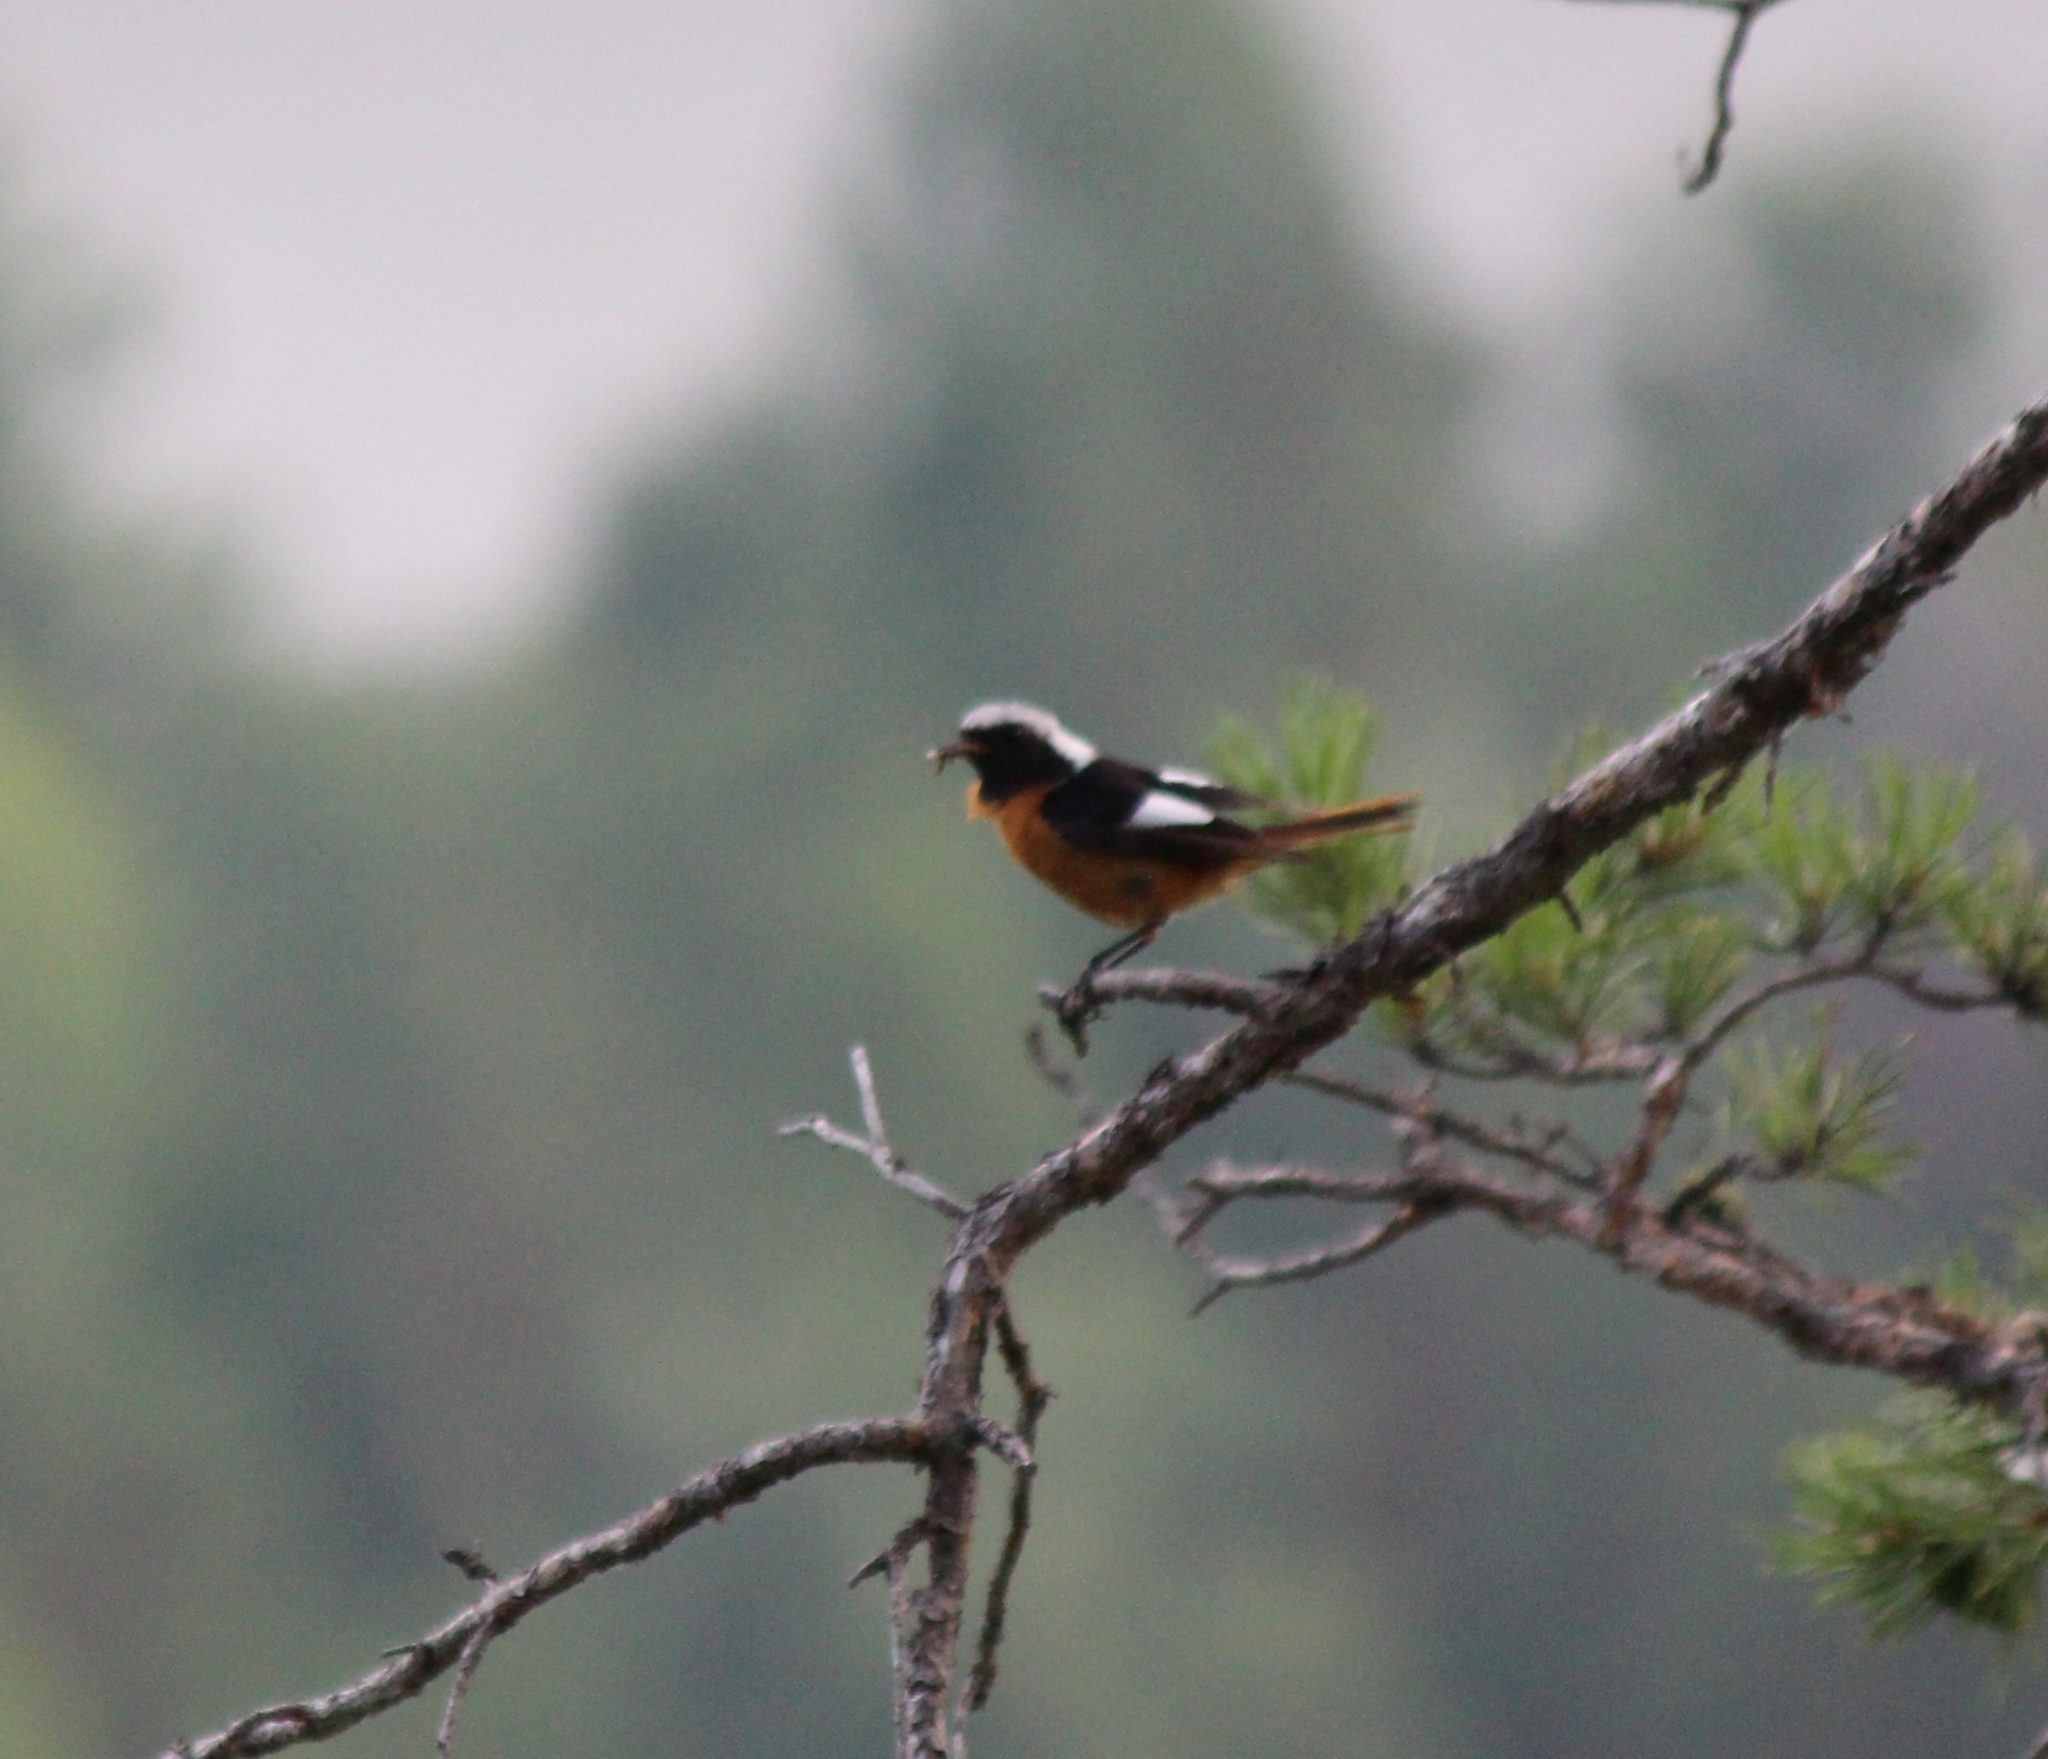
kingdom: Animalia
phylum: Chordata
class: Aves
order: Passeriformes
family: Muscicapidae
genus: Phoenicurus
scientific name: Phoenicurus auroreus
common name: Daurian redstart
